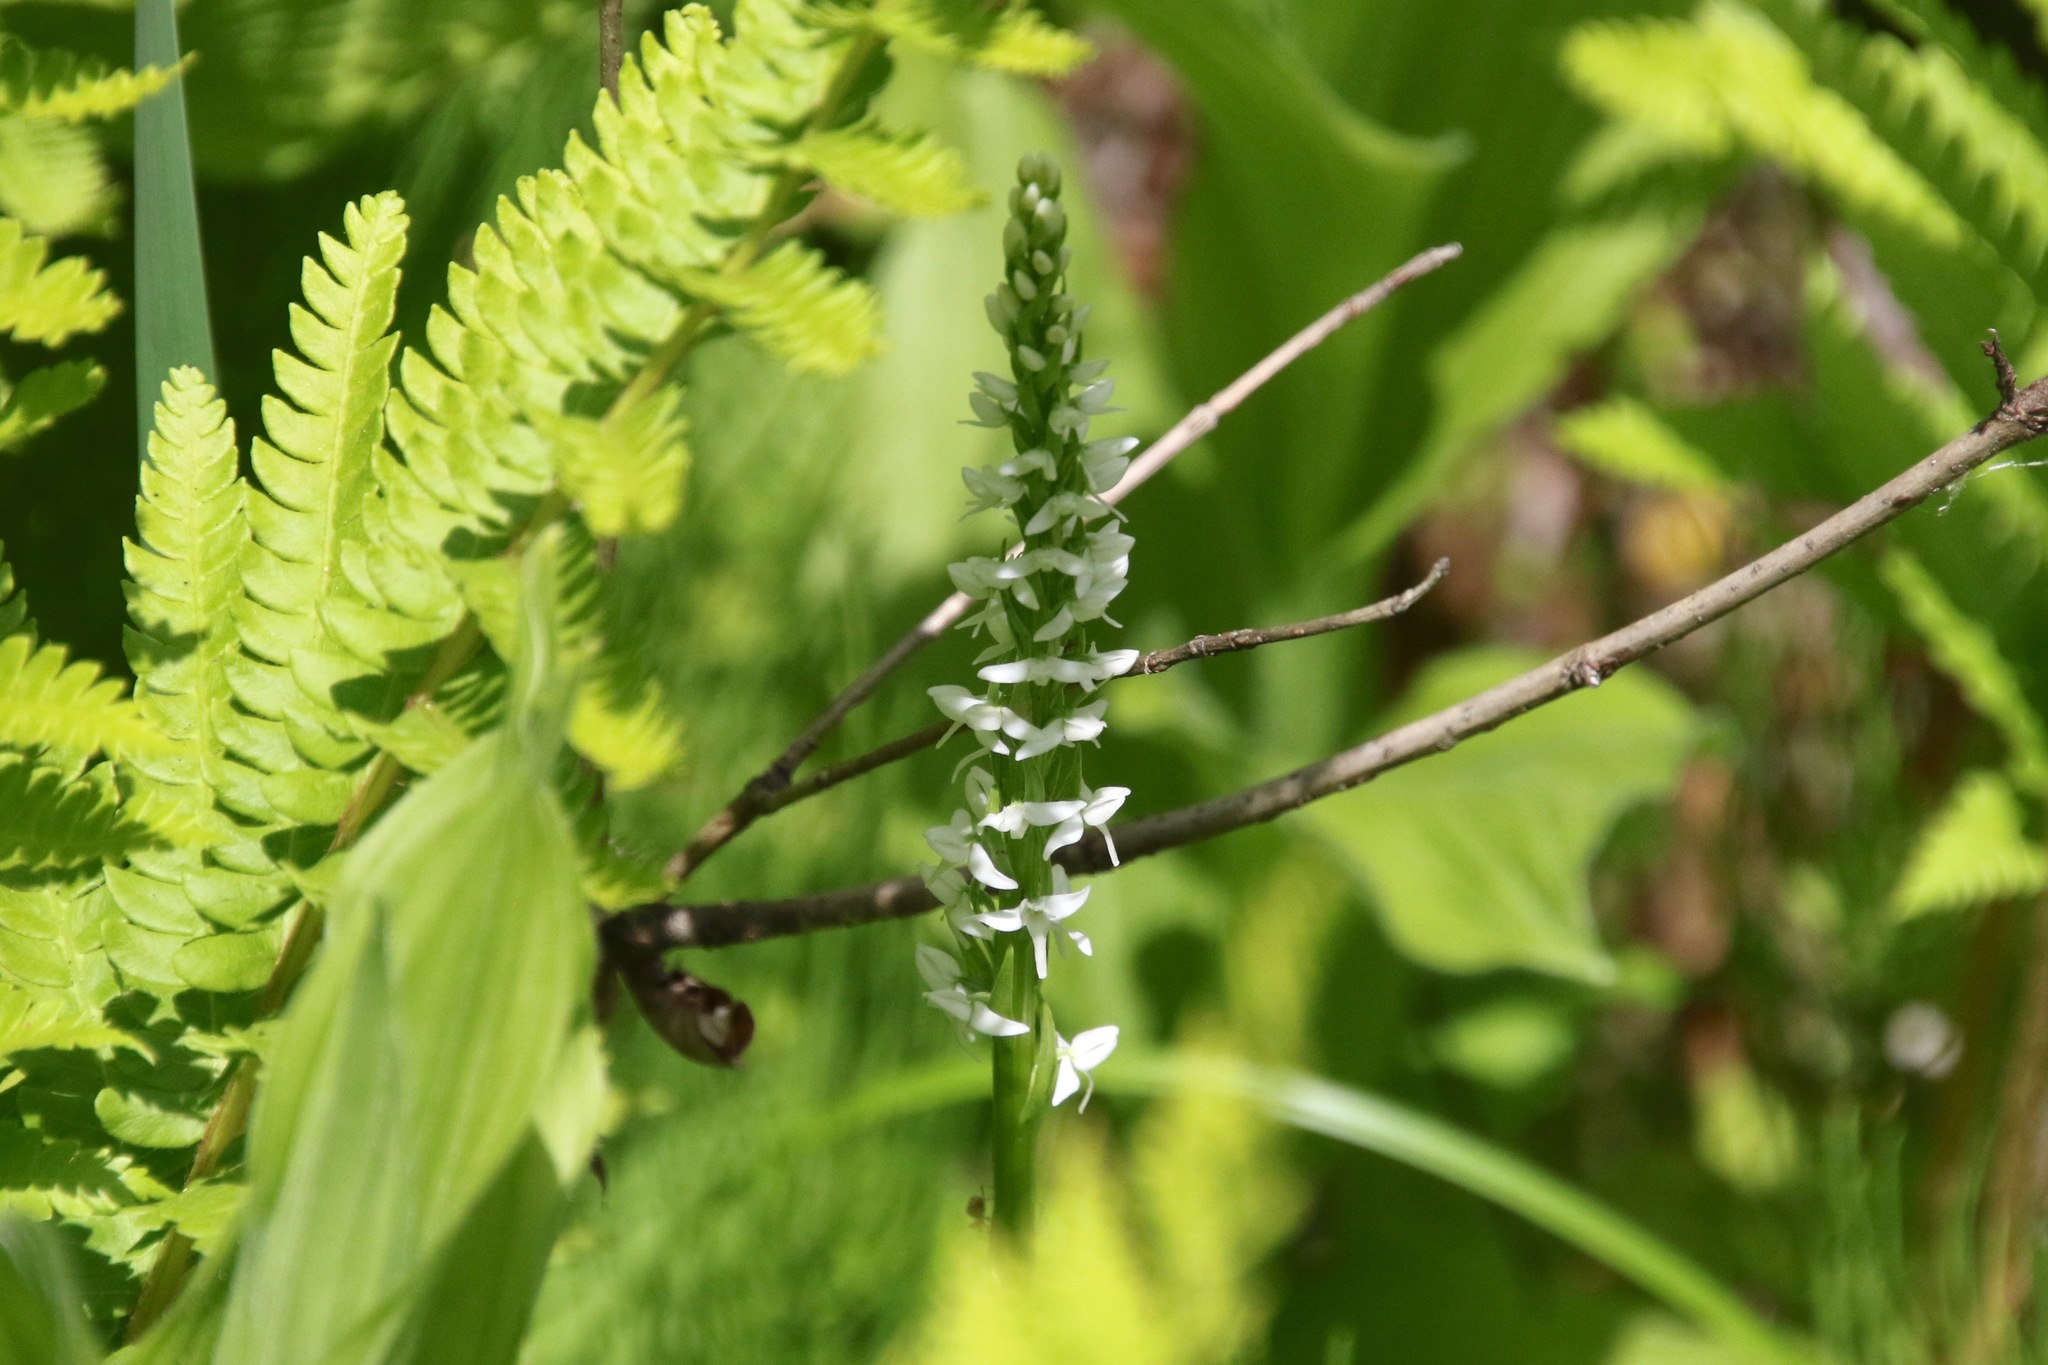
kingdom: Plantae
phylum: Tracheophyta
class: Liliopsida
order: Asparagales
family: Orchidaceae
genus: Platanthera
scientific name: Platanthera dilatata
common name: Bog candles
